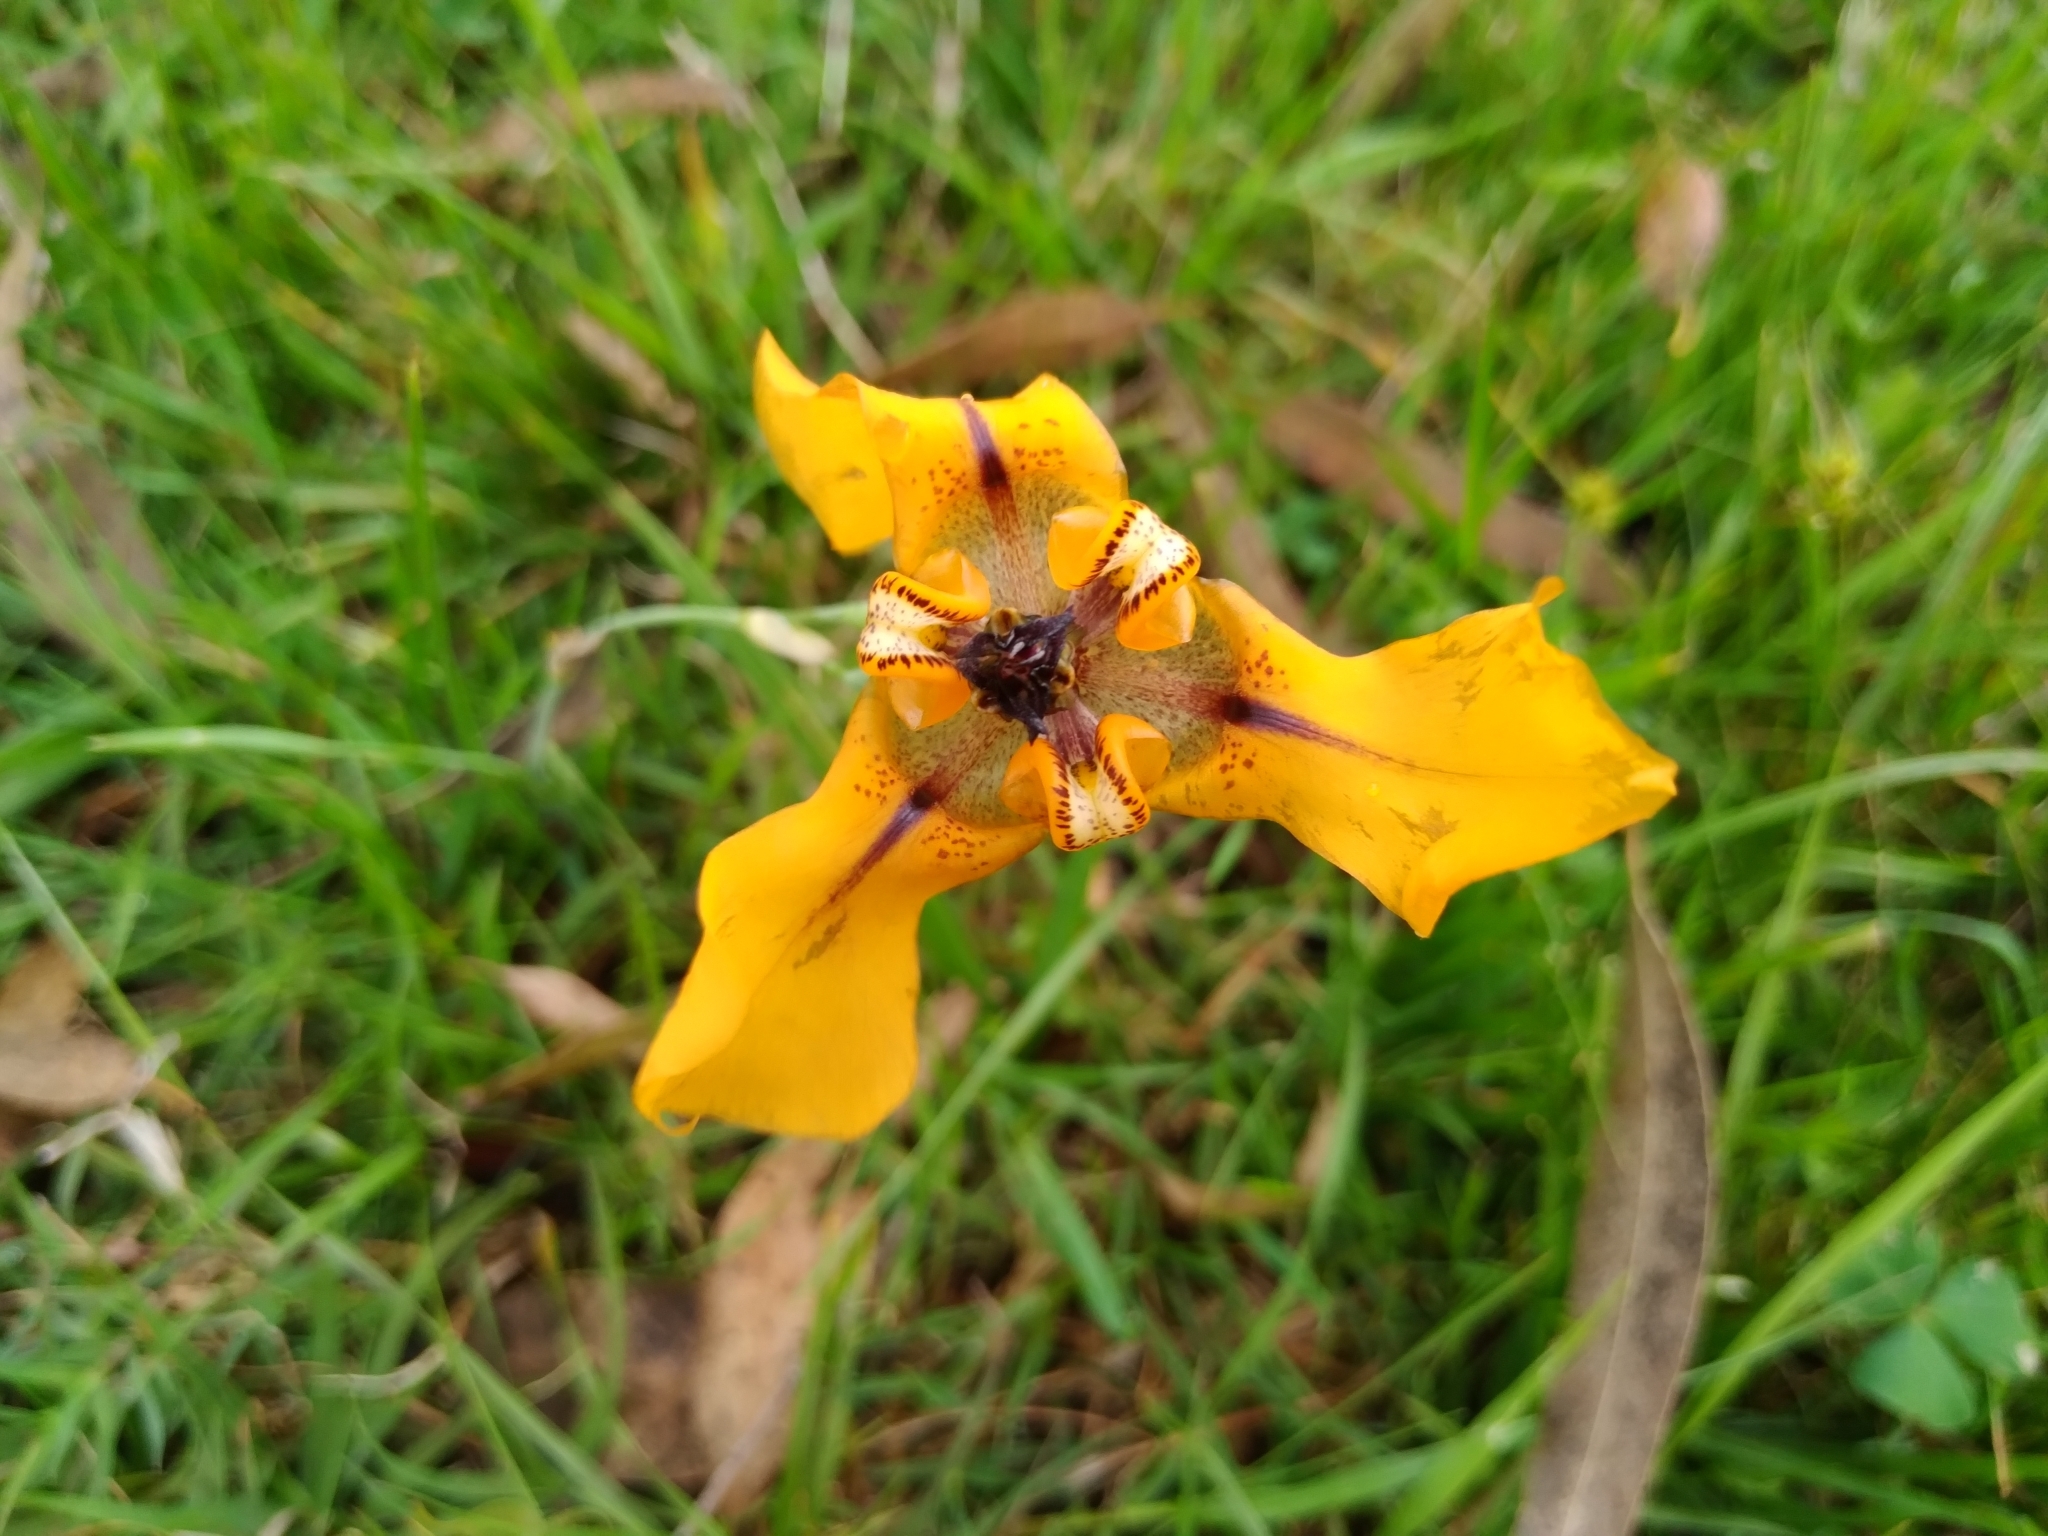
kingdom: Plantae
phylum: Tracheophyta
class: Liliopsida
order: Asparagales
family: Iridaceae
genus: Cypella
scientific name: Cypella herbertii
